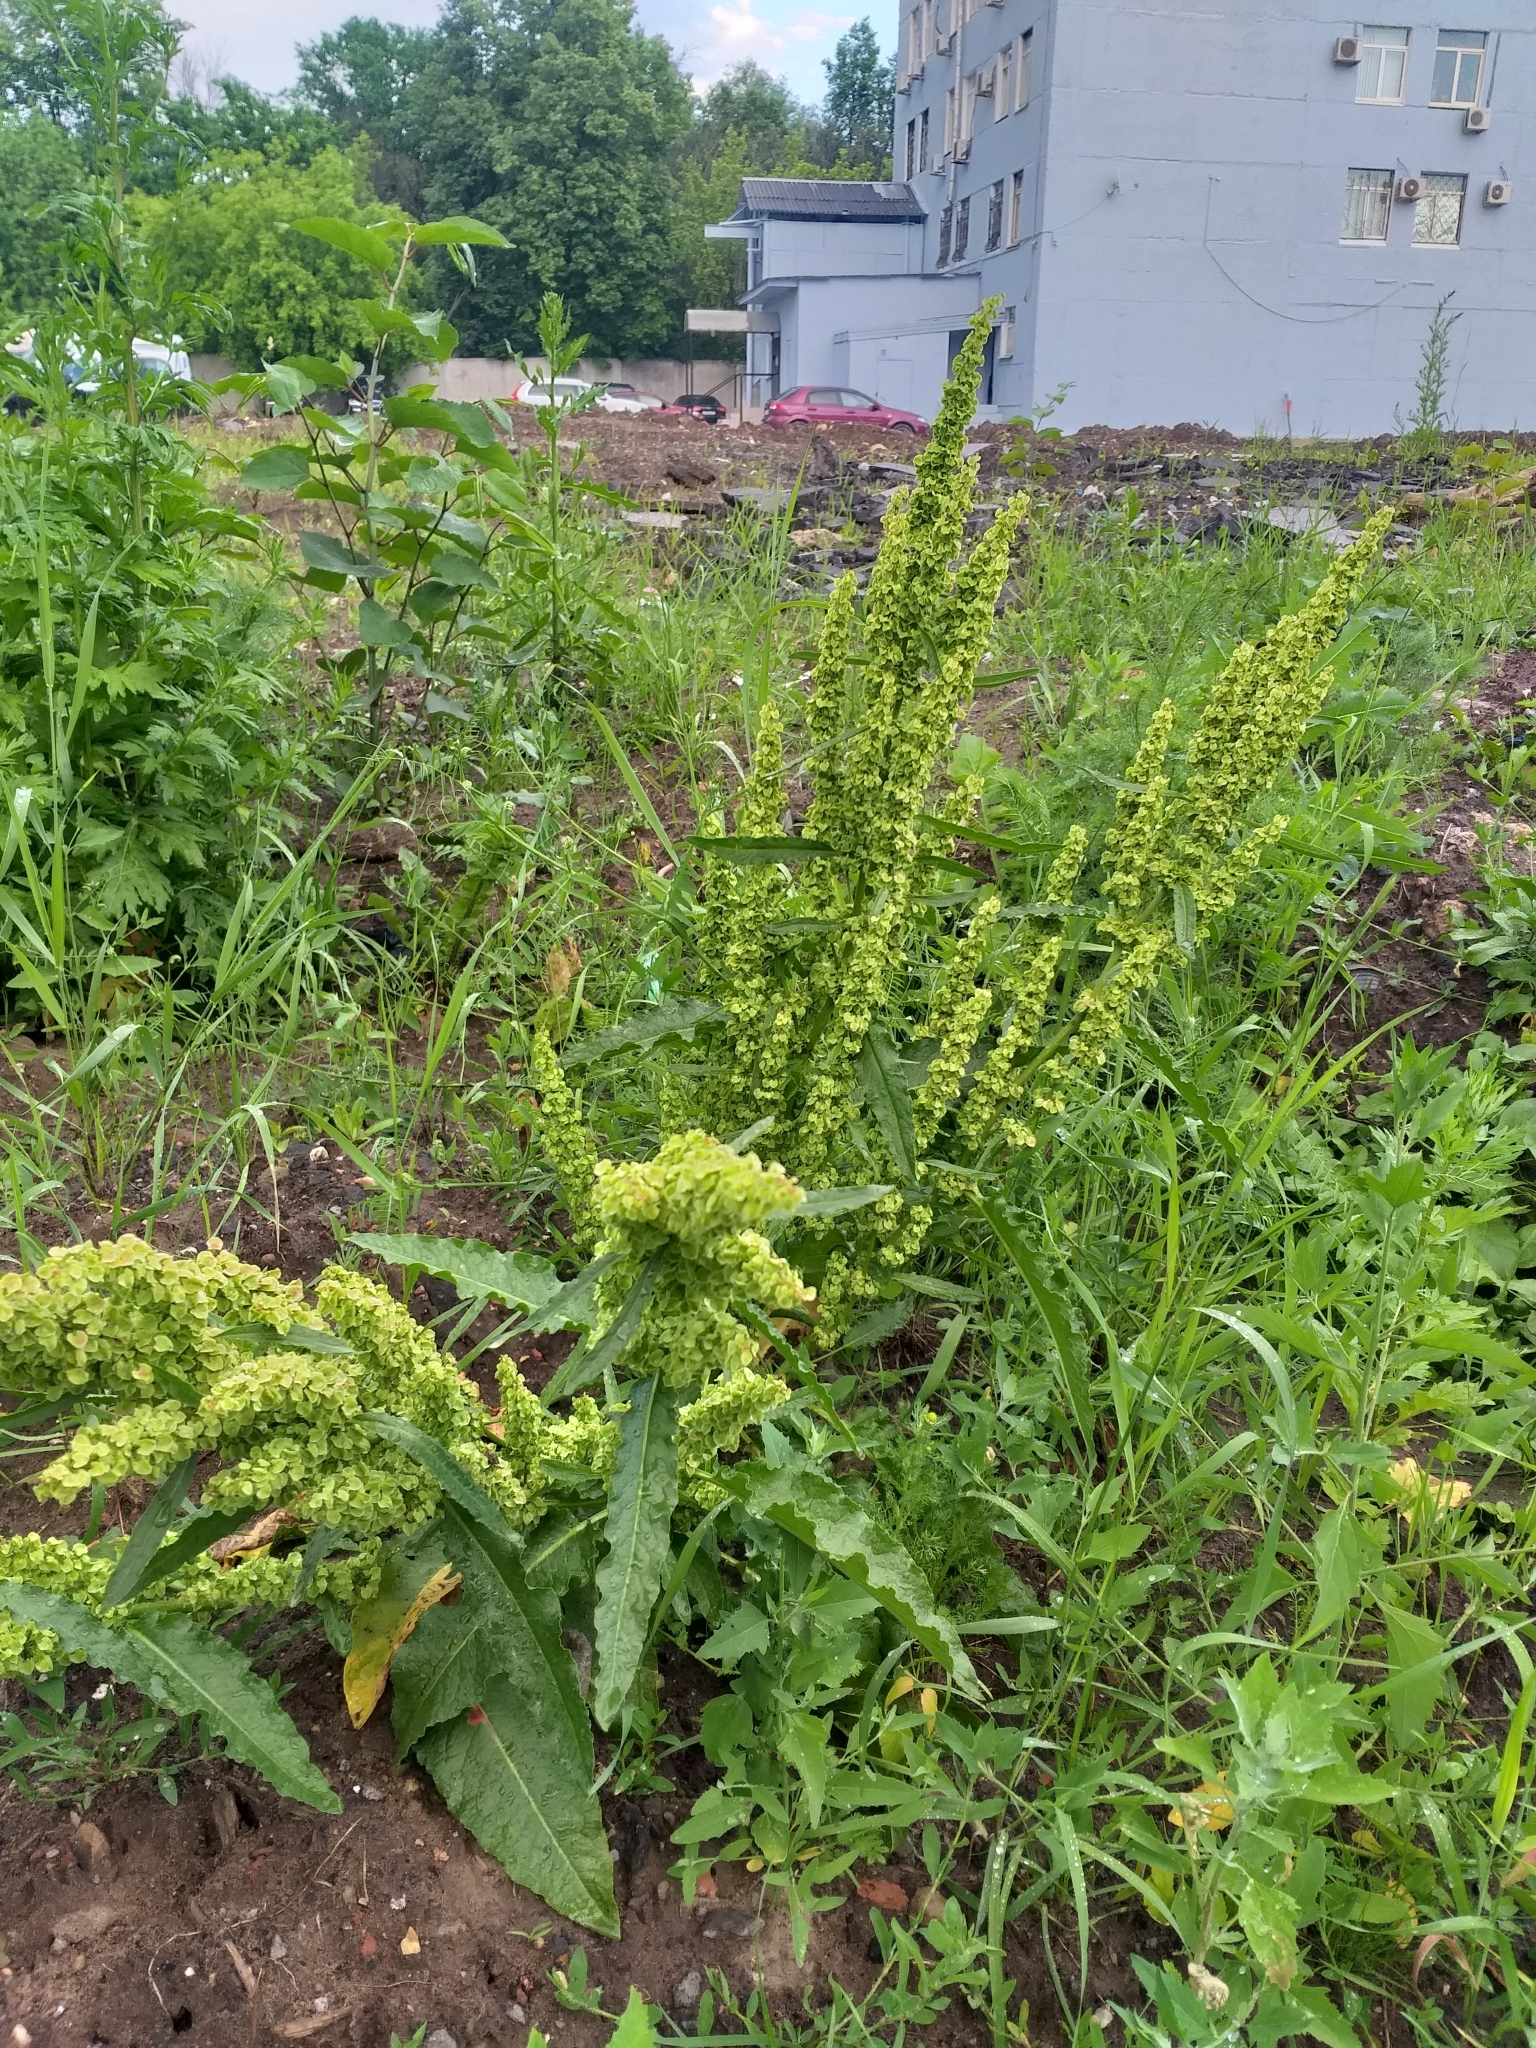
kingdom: Plantae
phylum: Tracheophyta
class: Magnoliopsida
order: Caryophyllales
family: Polygonaceae
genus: Rumex
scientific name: Rumex longifolius
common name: Dooryard dock
